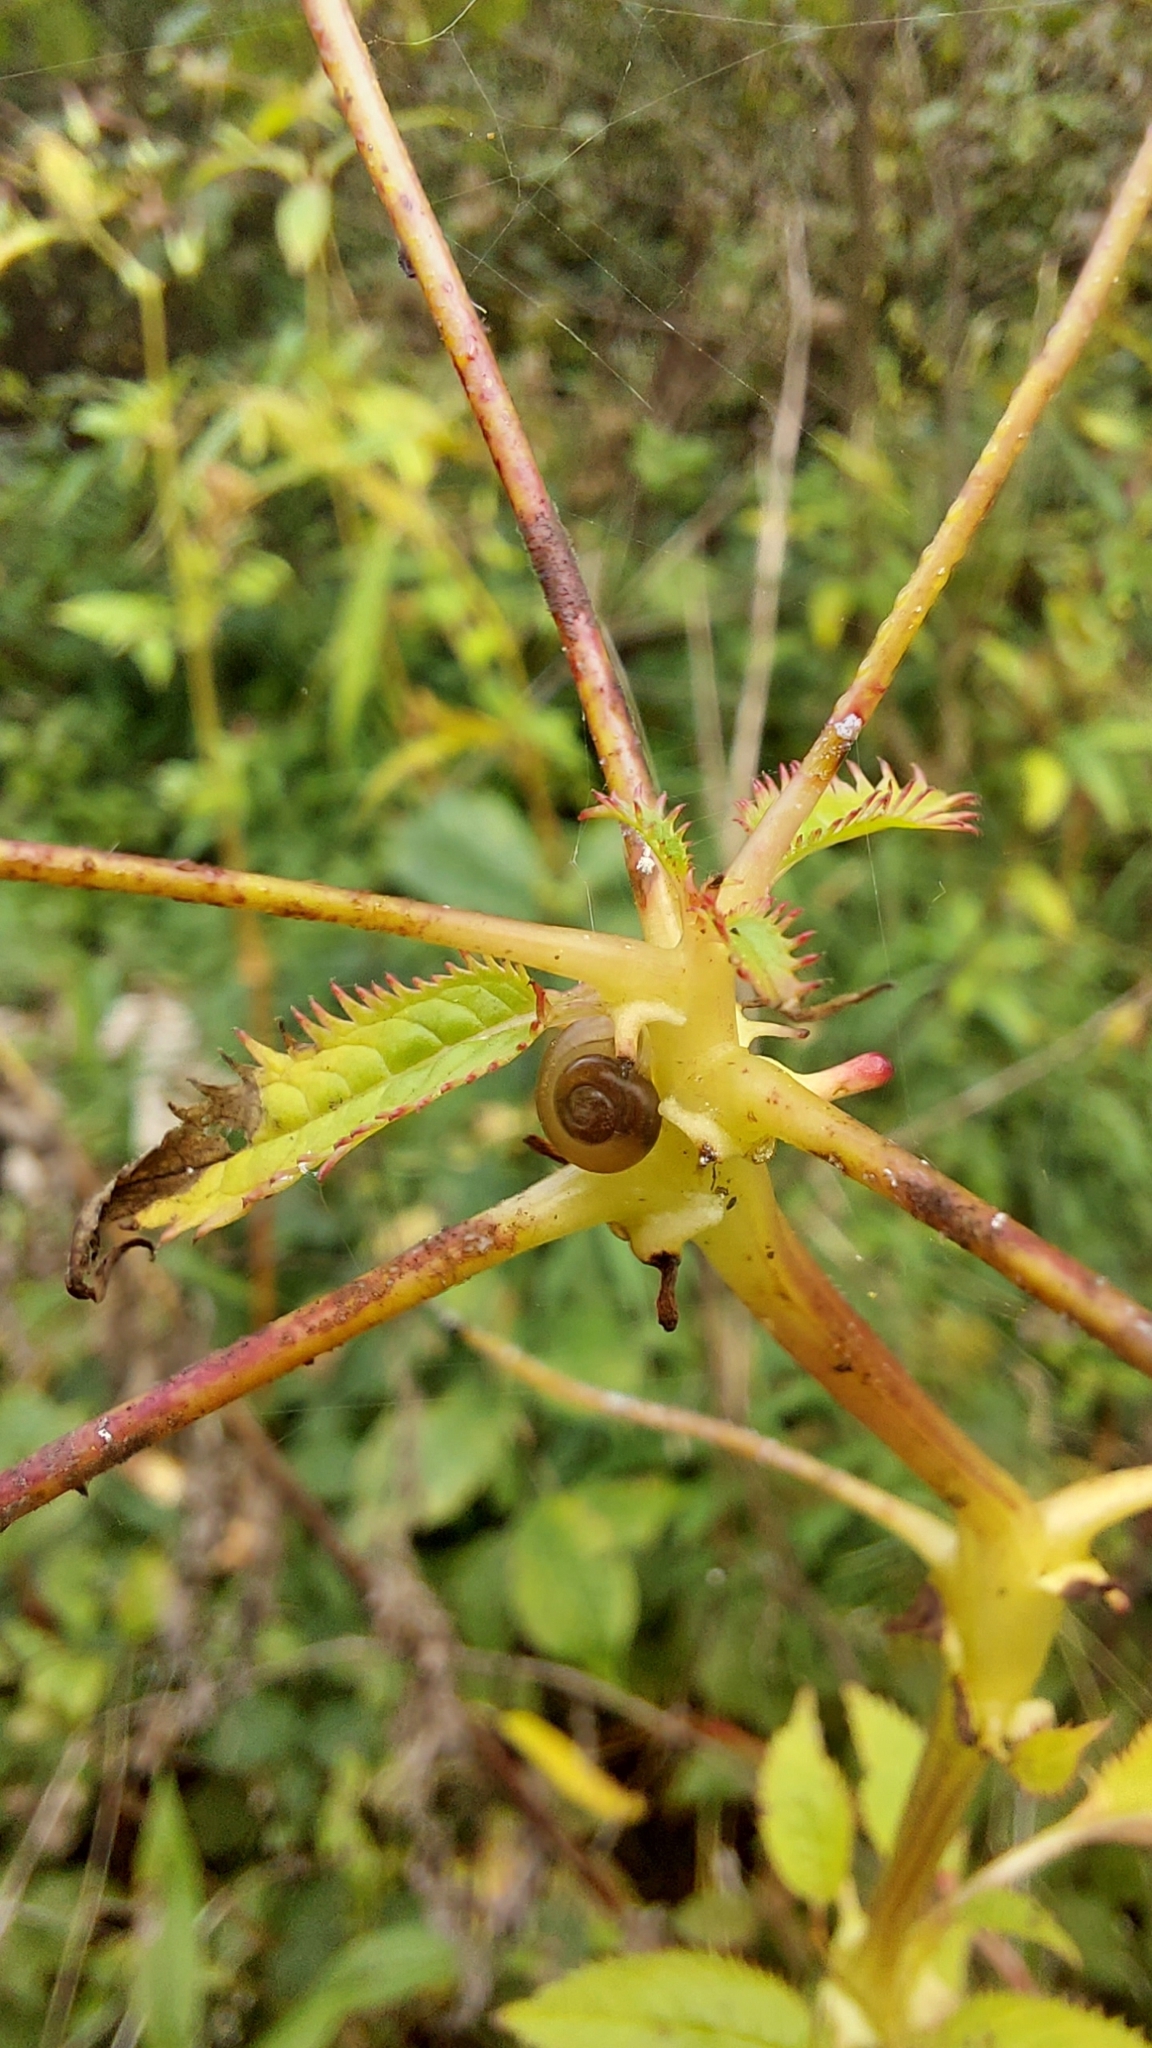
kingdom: Plantae
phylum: Tracheophyta
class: Magnoliopsida
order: Ericales
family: Balsaminaceae
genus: Impatiens
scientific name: Impatiens glandulifera
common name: Himalayan balsam
